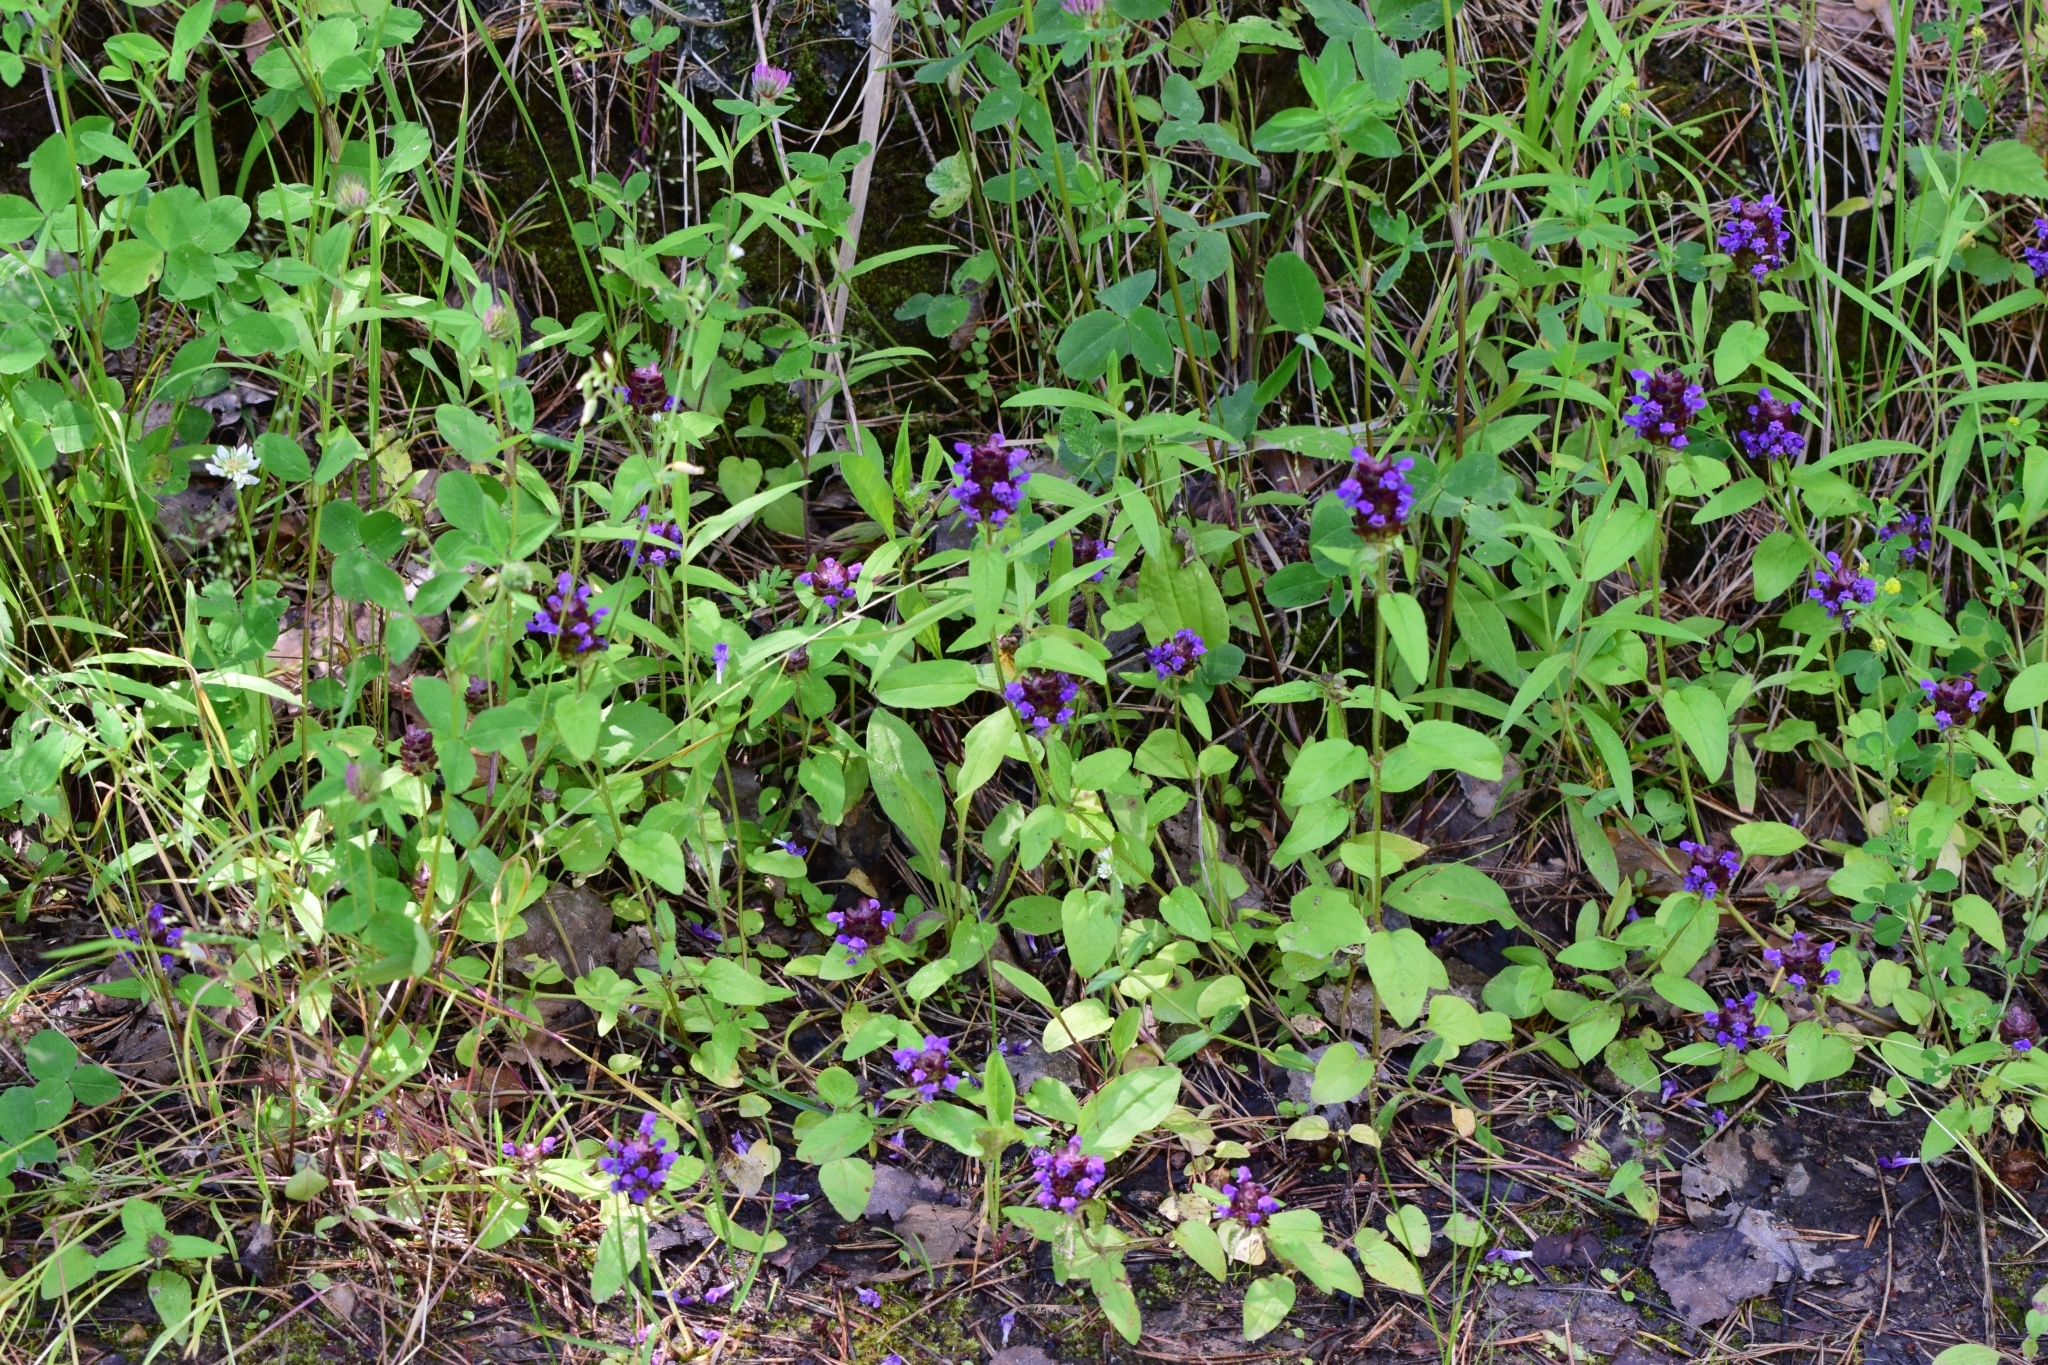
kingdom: Plantae
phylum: Tracheophyta
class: Magnoliopsida
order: Lamiales
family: Lamiaceae
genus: Prunella
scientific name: Prunella vulgaris
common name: Heal-all
